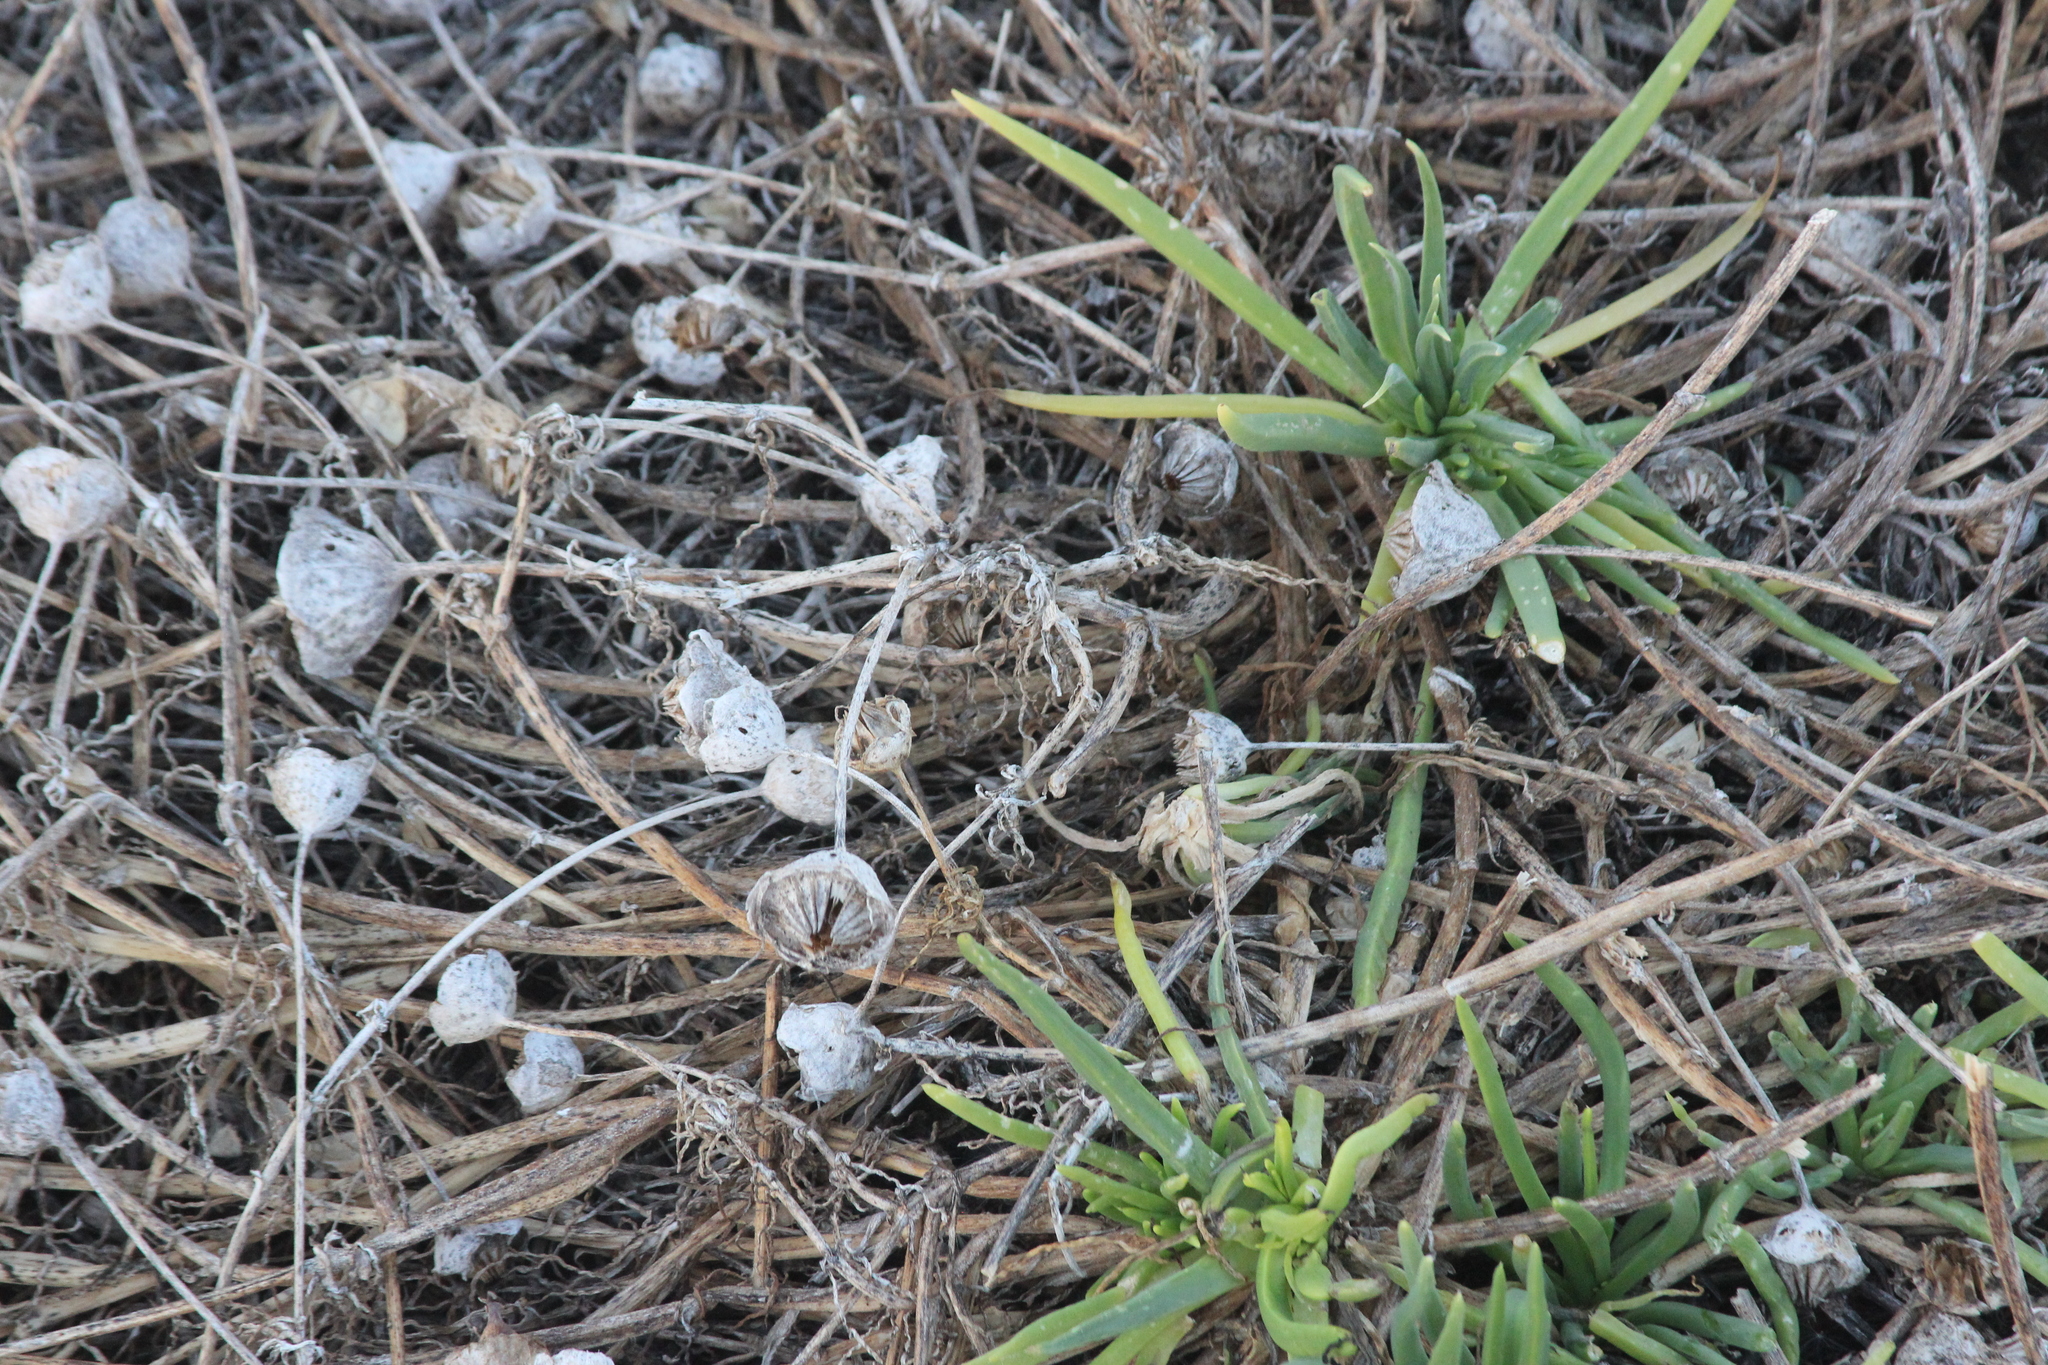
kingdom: Plantae
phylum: Tracheophyta
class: Magnoliopsida
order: Caryophyllales
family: Aizoaceae
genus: Conicosia
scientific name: Conicosia pugioniformis
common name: Narrow-leaved iceplant
